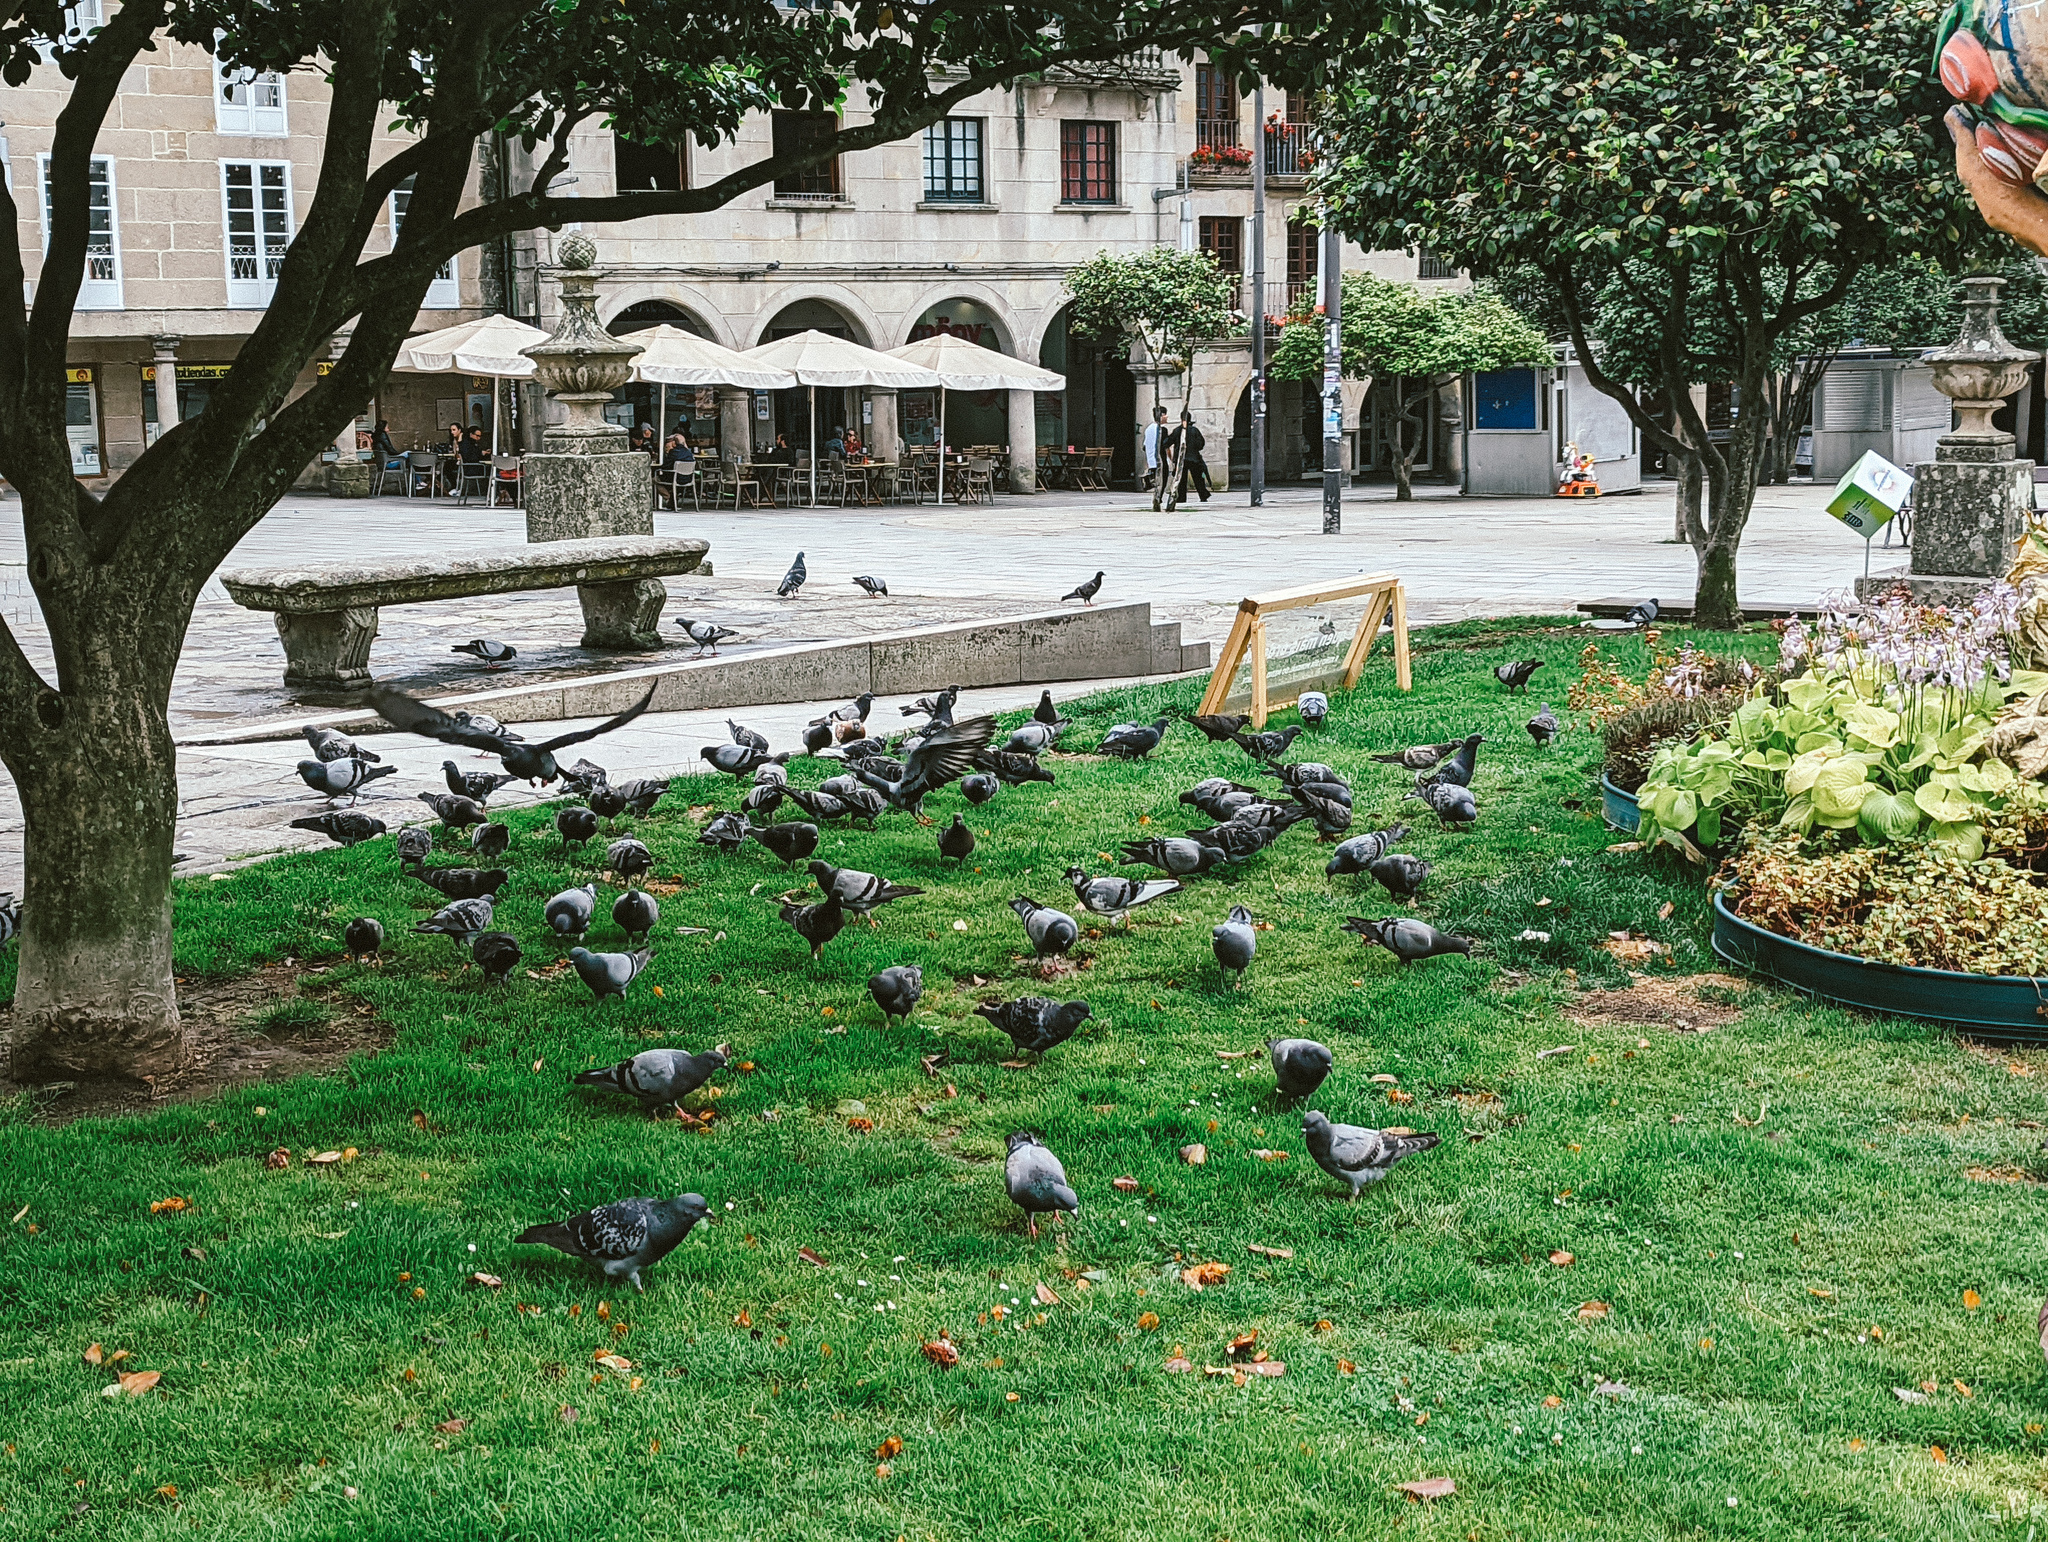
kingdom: Animalia
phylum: Chordata
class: Aves
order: Columbiformes
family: Columbidae
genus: Columba
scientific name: Columba livia
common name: Rock pigeon
